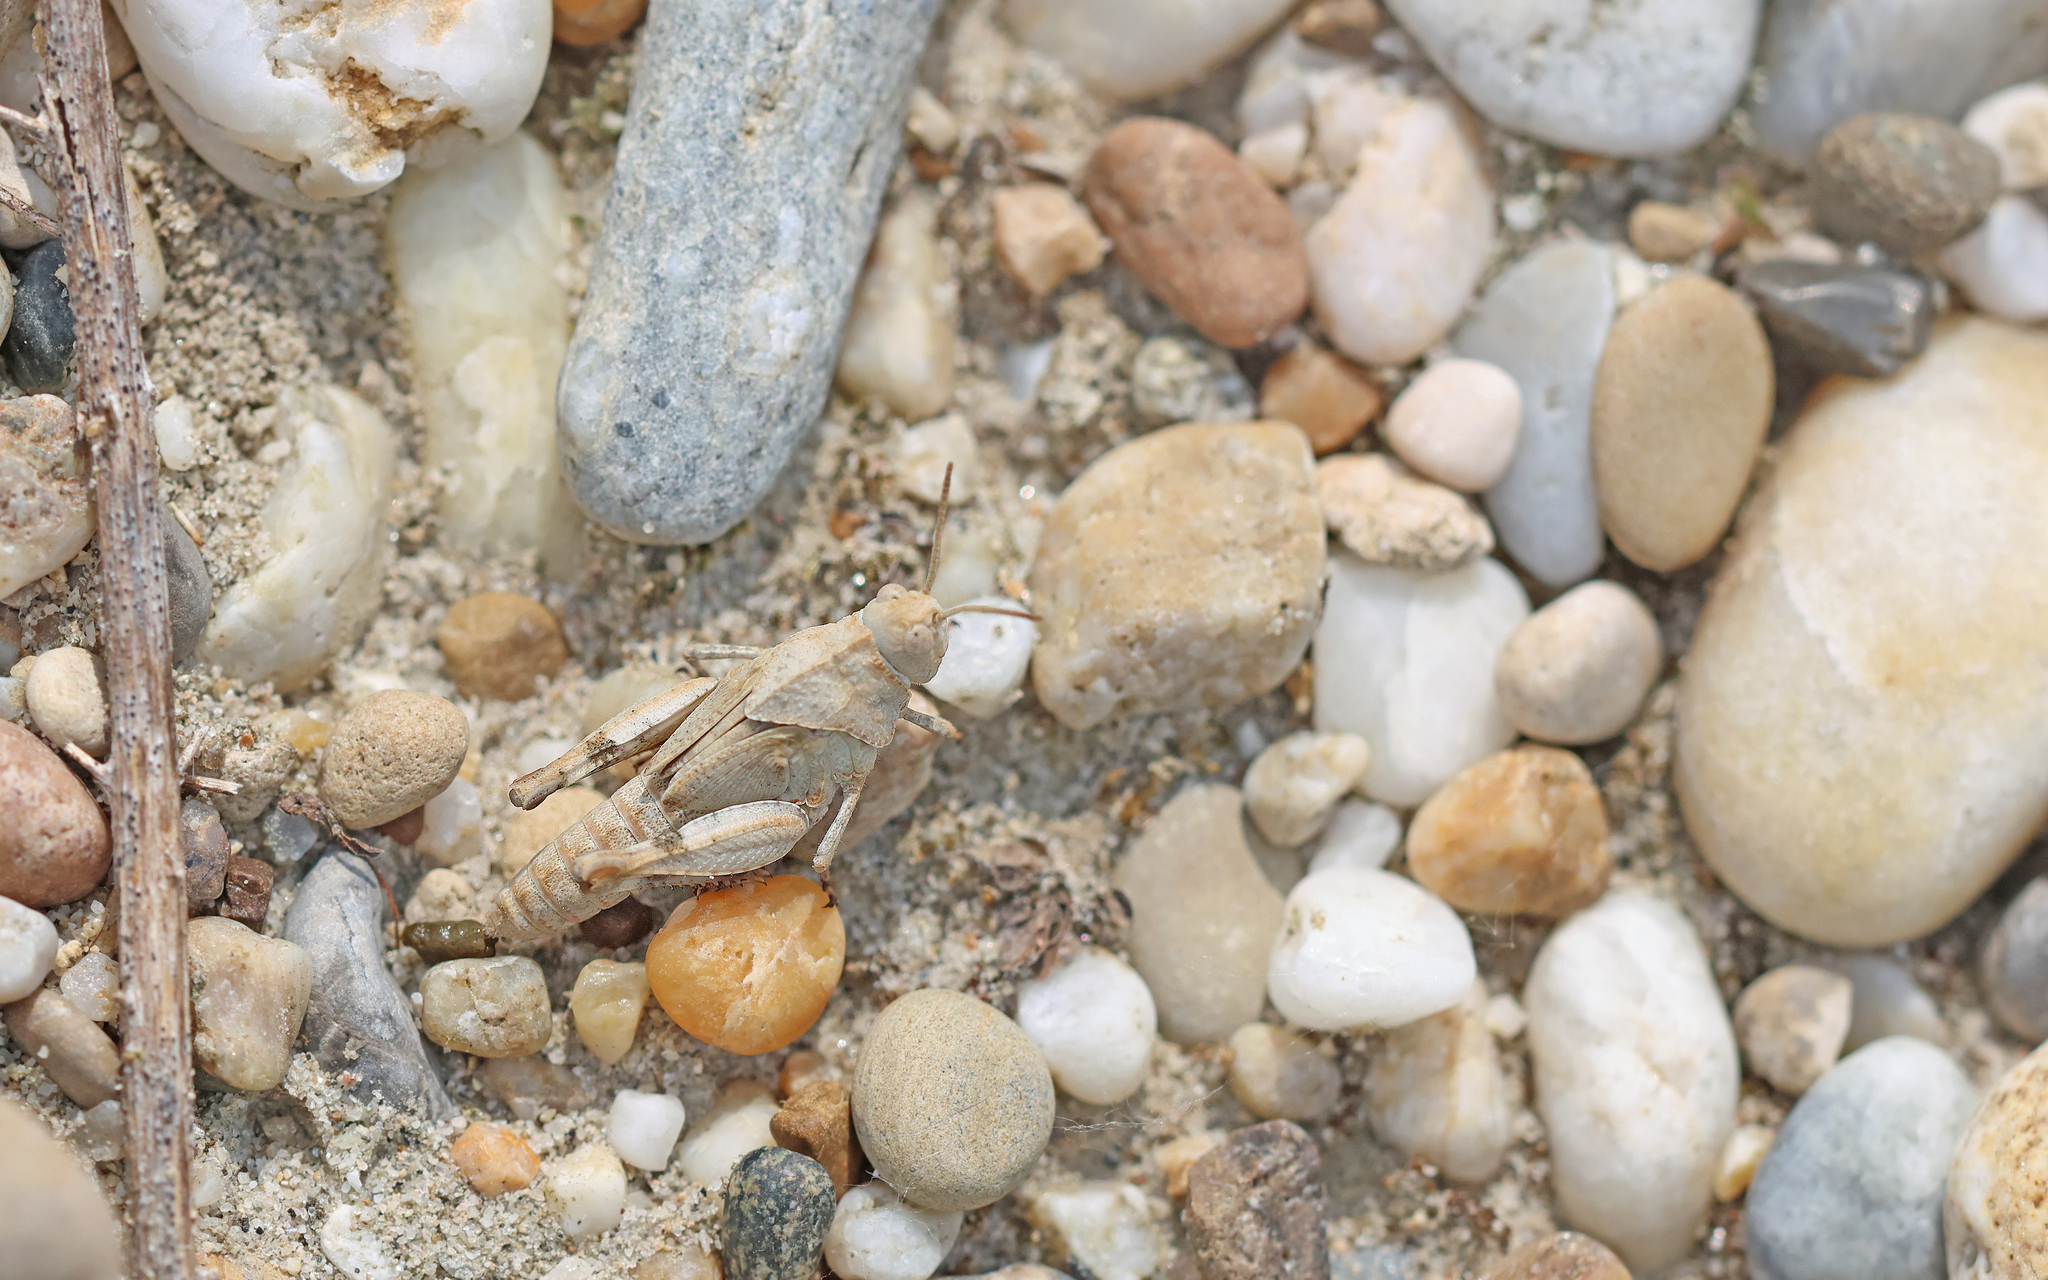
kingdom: Animalia
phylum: Arthropoda
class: Insecta
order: Orthoptera
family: Acrididae
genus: Oedipoda
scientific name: Oedipoda caerulescens
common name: Blue-winged grasshopper
